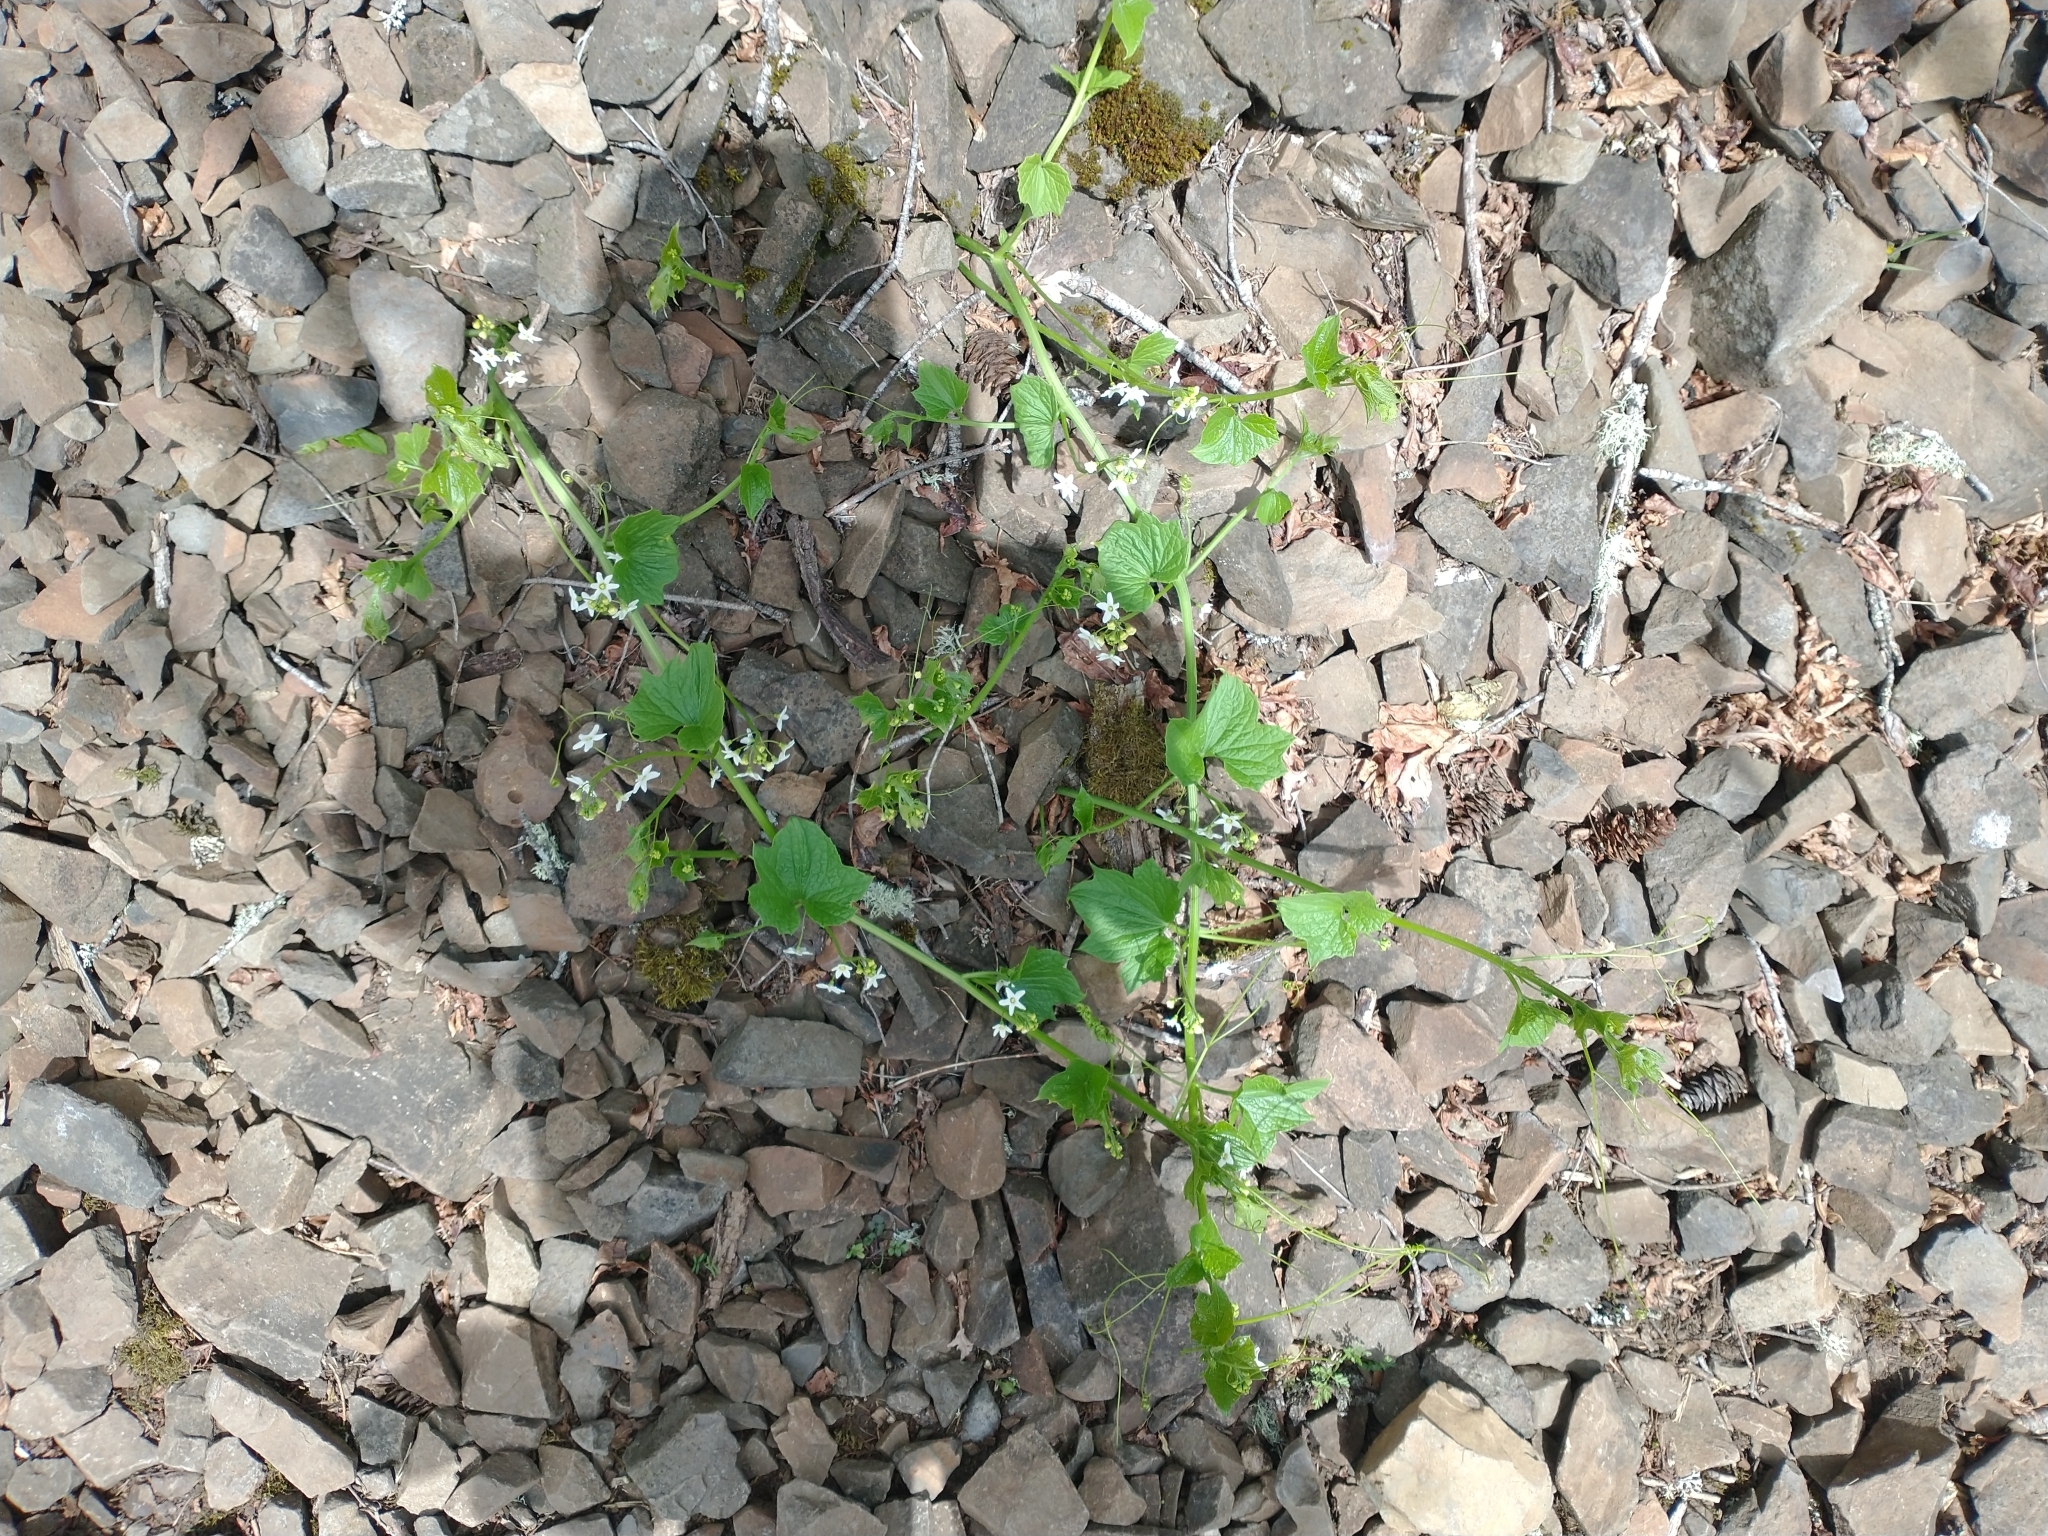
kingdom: Plantae
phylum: Tracheophyta
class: Magnoliopsida
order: Cucurbitales
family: Cucurbitaceae
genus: Marah
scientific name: Marah oregana
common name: Coastal manroot
